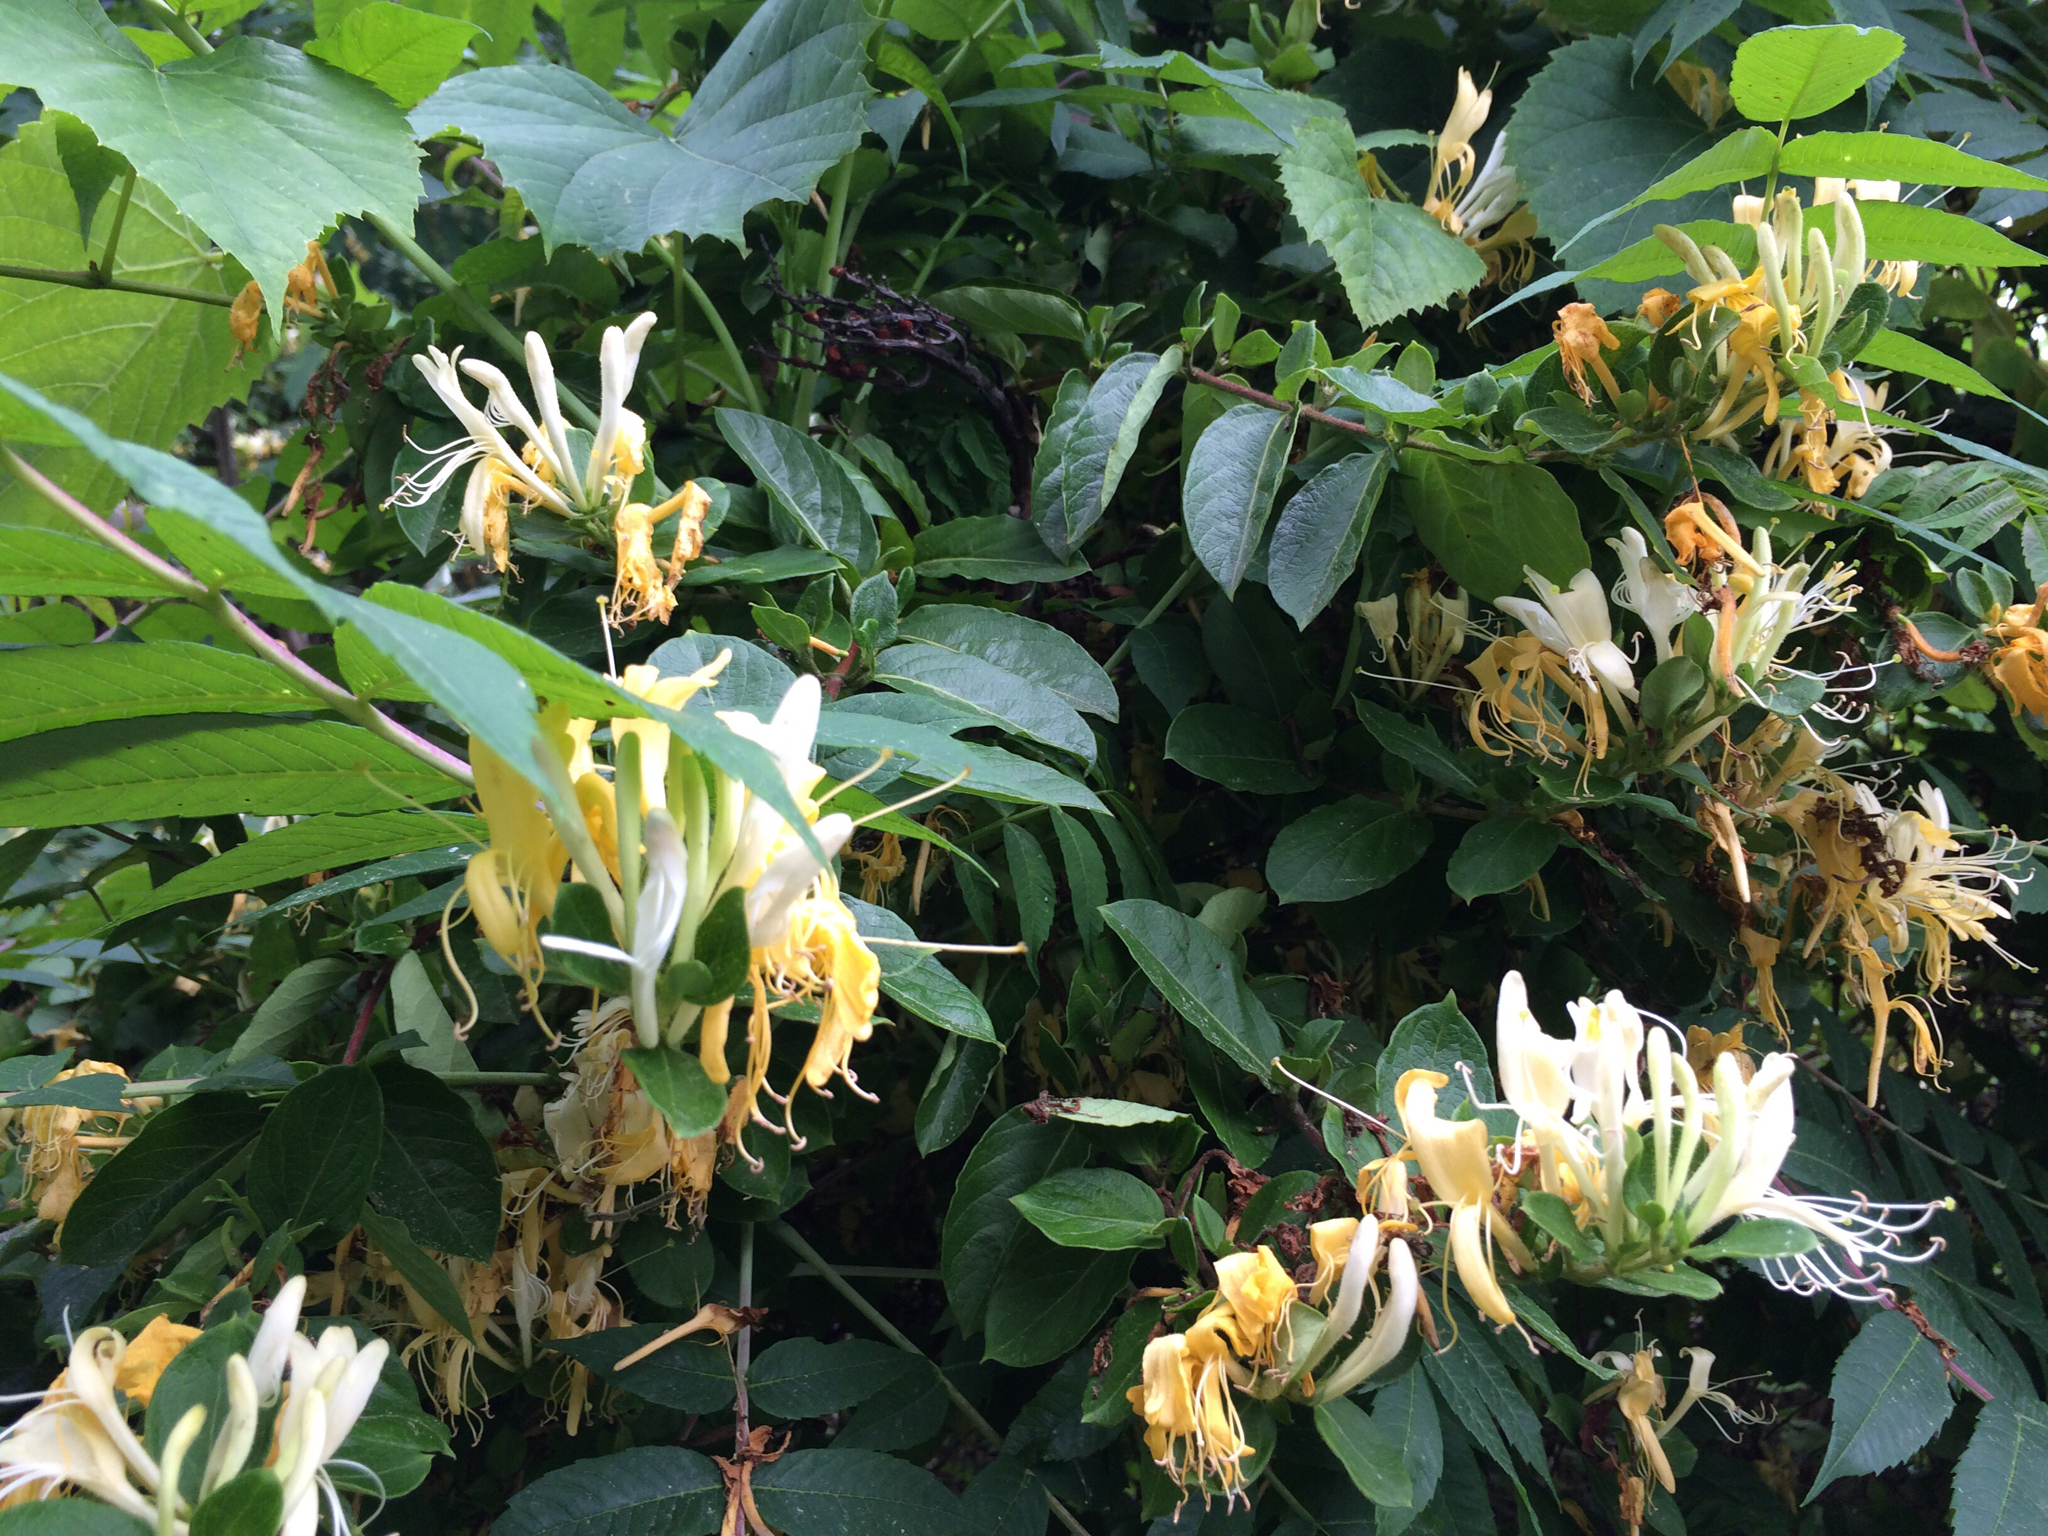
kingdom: Plantae
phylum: Tracheophyta
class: Magnoliopsida
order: Dipsacales
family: Caprifoliaceae
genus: Lonicera
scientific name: Lonicera japonica
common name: Japanese honeysuckle
